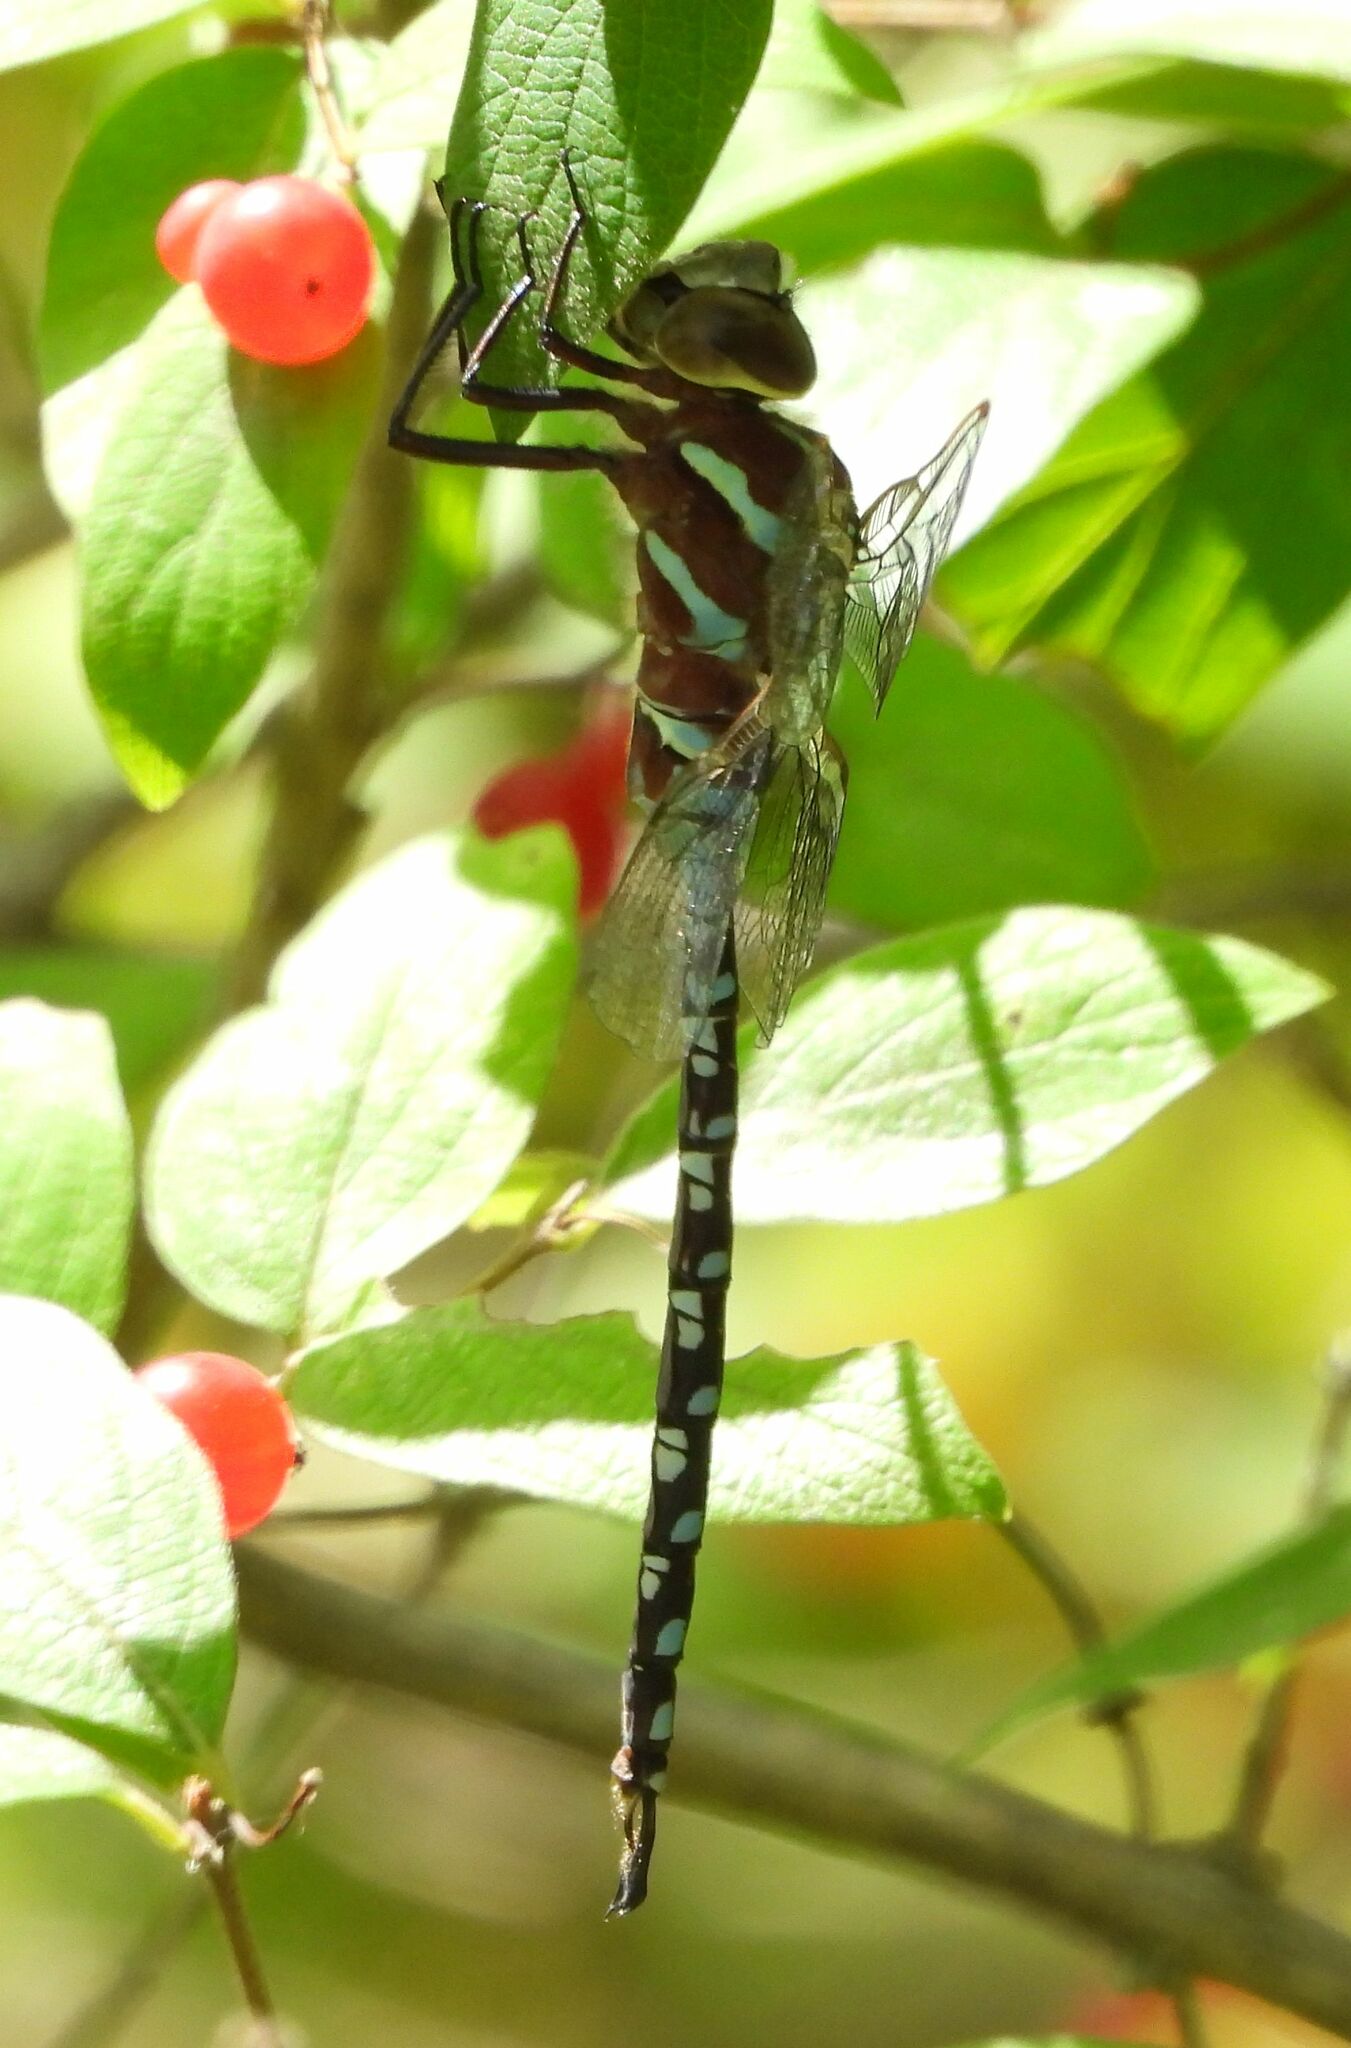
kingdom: Animalia
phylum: Arthropoda
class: Insecta
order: Odonata
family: Aeshnidae
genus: Aeshna
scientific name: Aeshna constricta
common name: Lance-tipped darner
